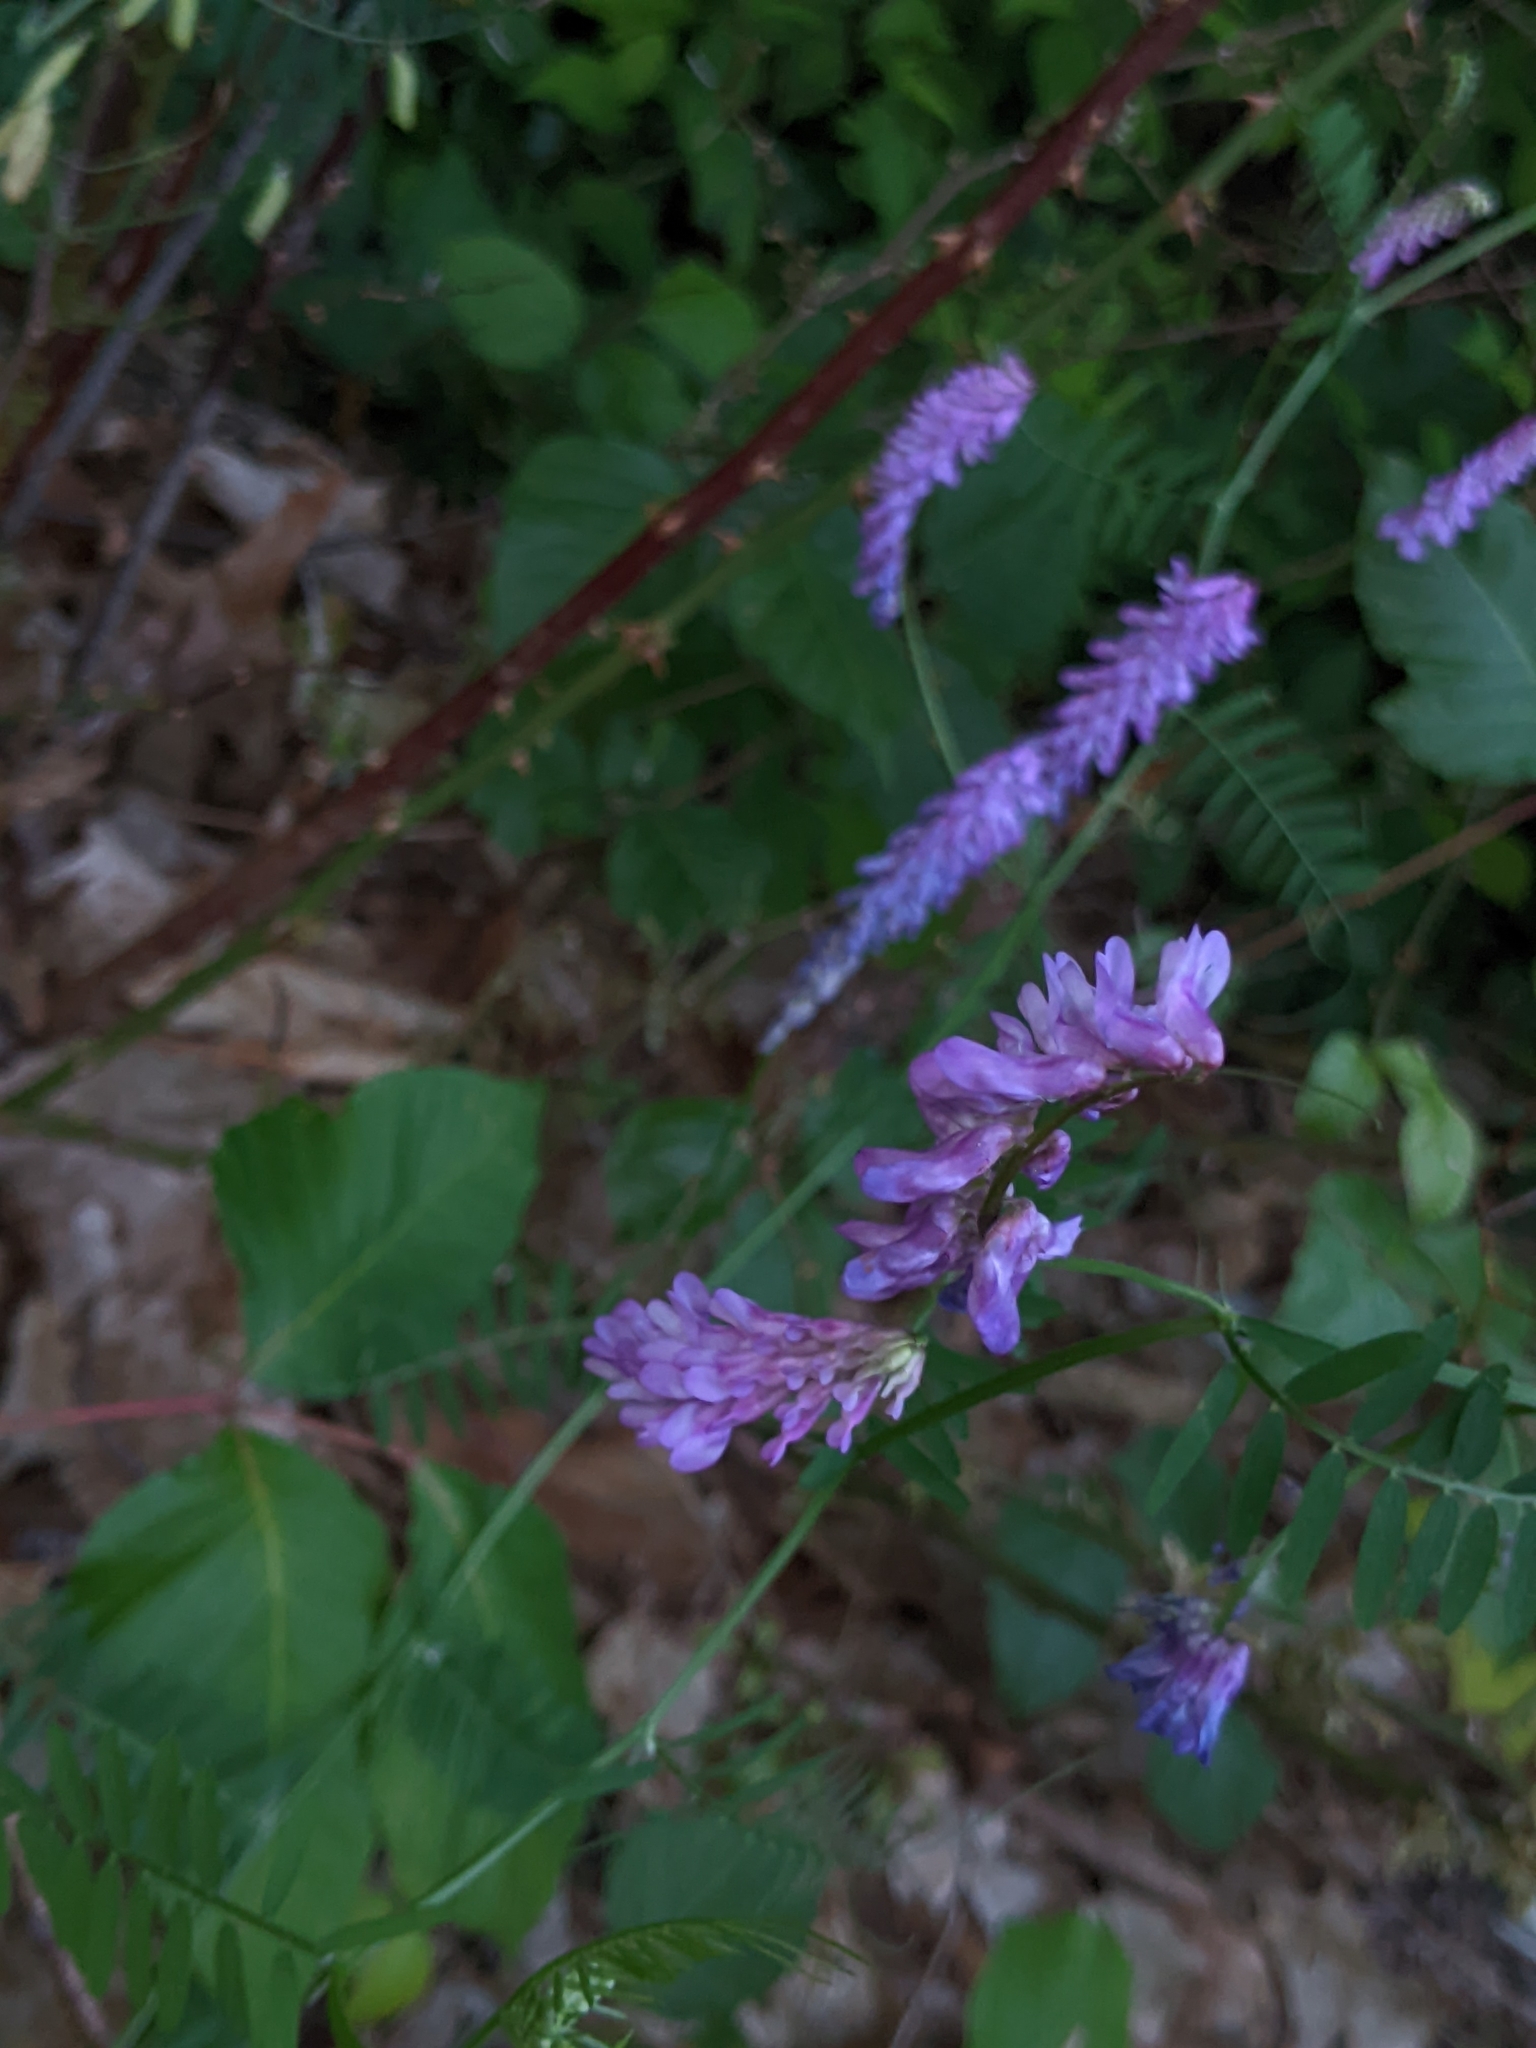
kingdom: Plantae
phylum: Tracheophyta
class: Magnoliopsida
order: Fabales
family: Fabaceae
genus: Vicia
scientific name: Vicia cracca
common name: Bird vetch
